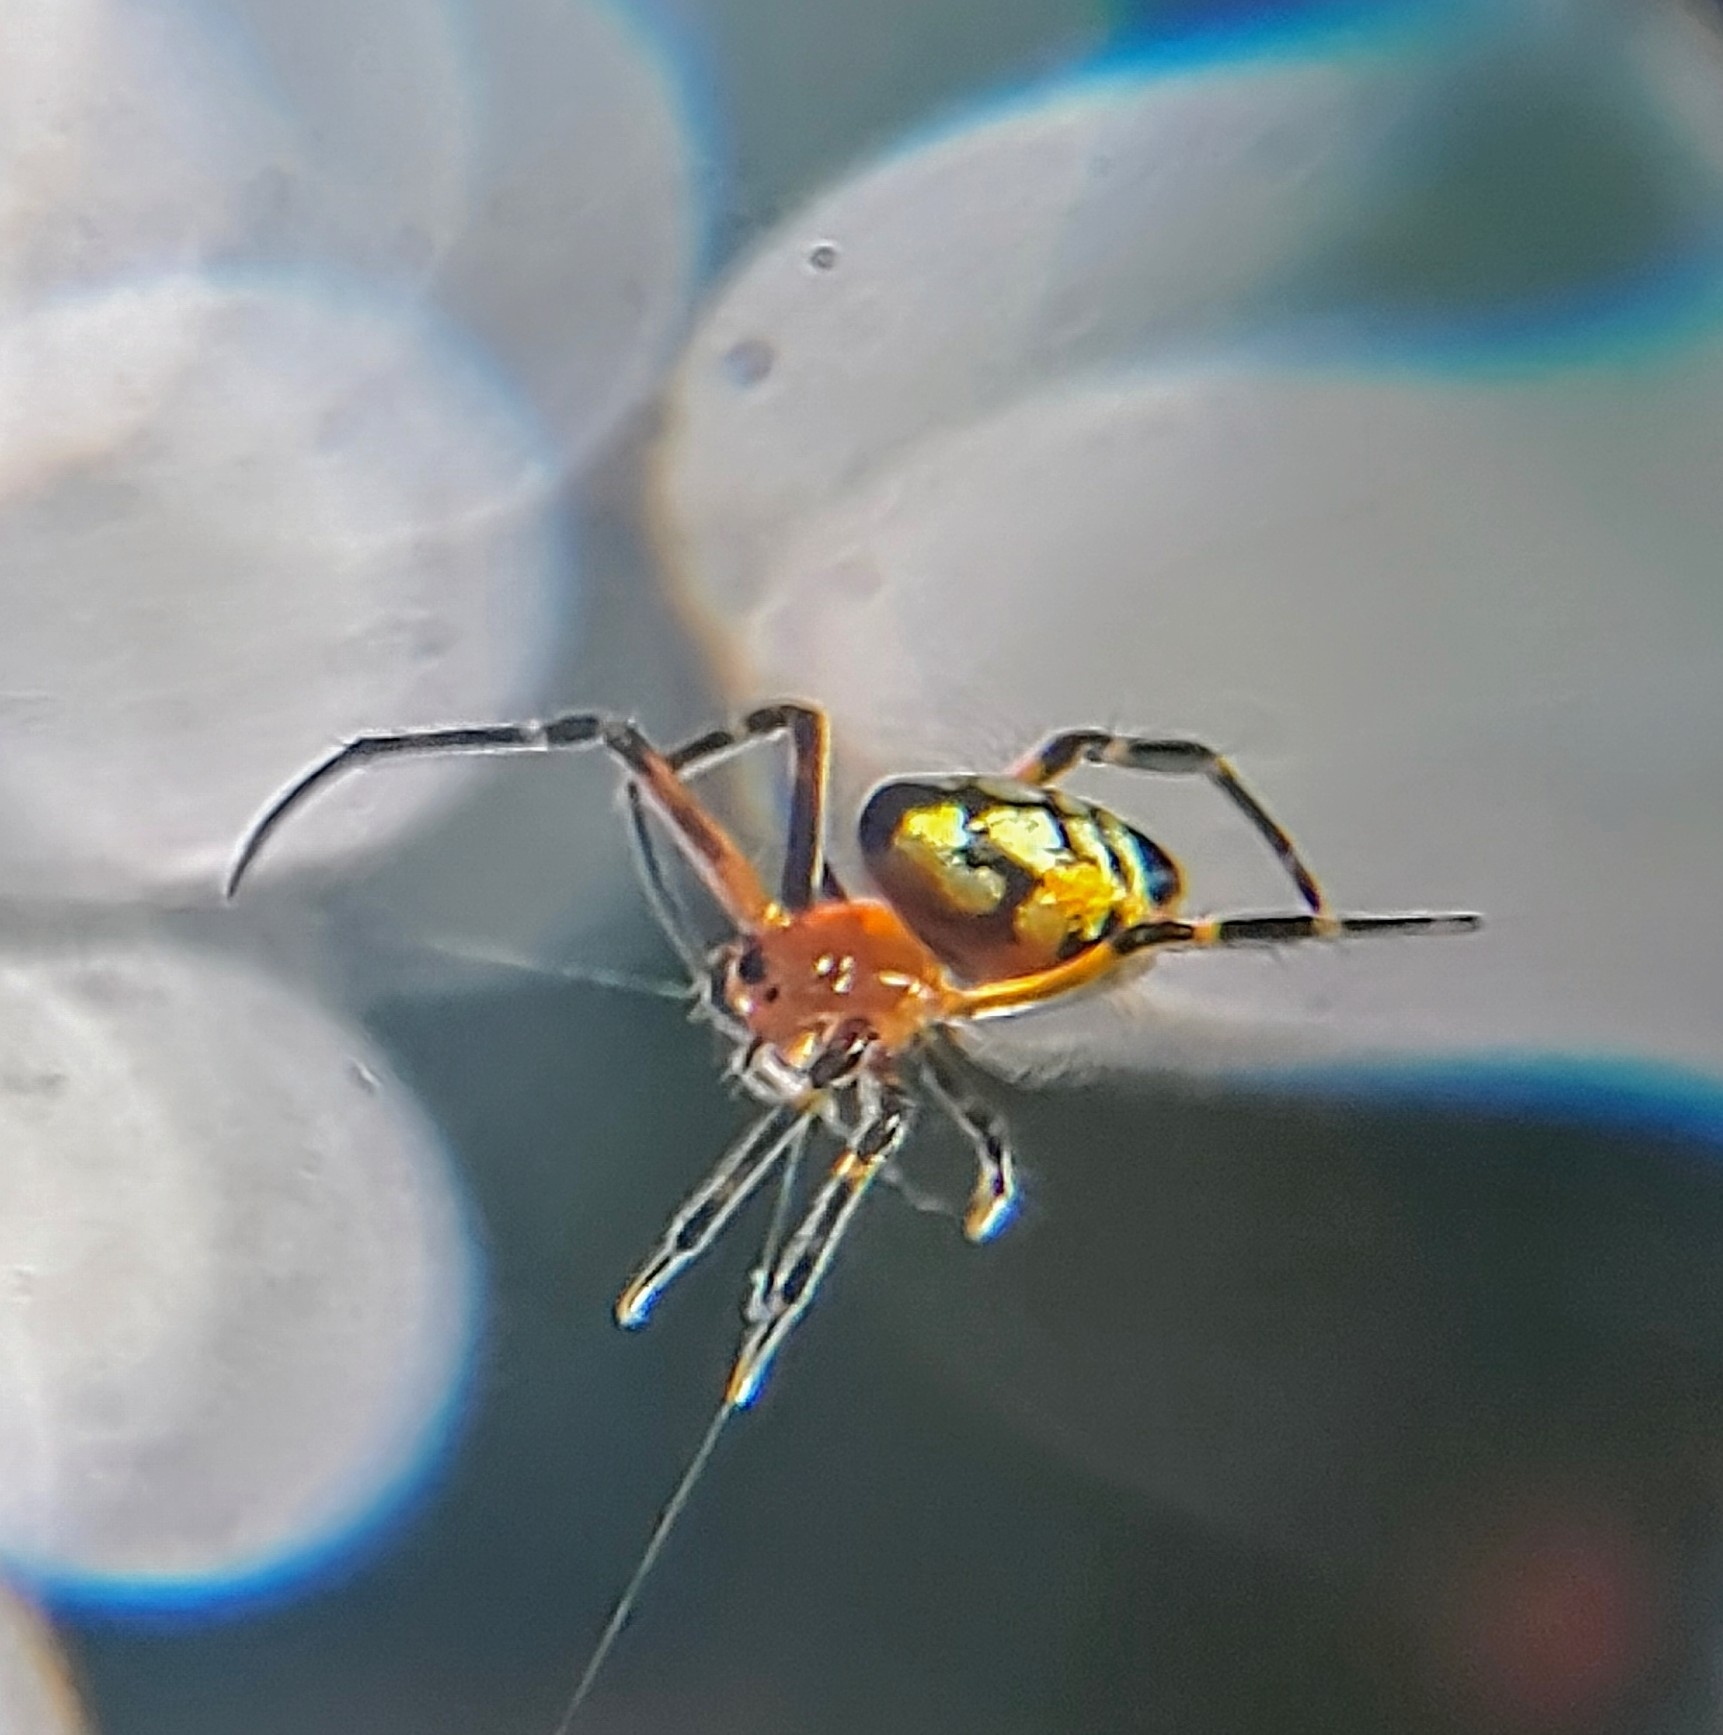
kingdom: Animalia
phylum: Arthropoda
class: Arachnida
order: Araneae
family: Tetragnathidae
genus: Leucauge
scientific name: Leucauge fastigata
